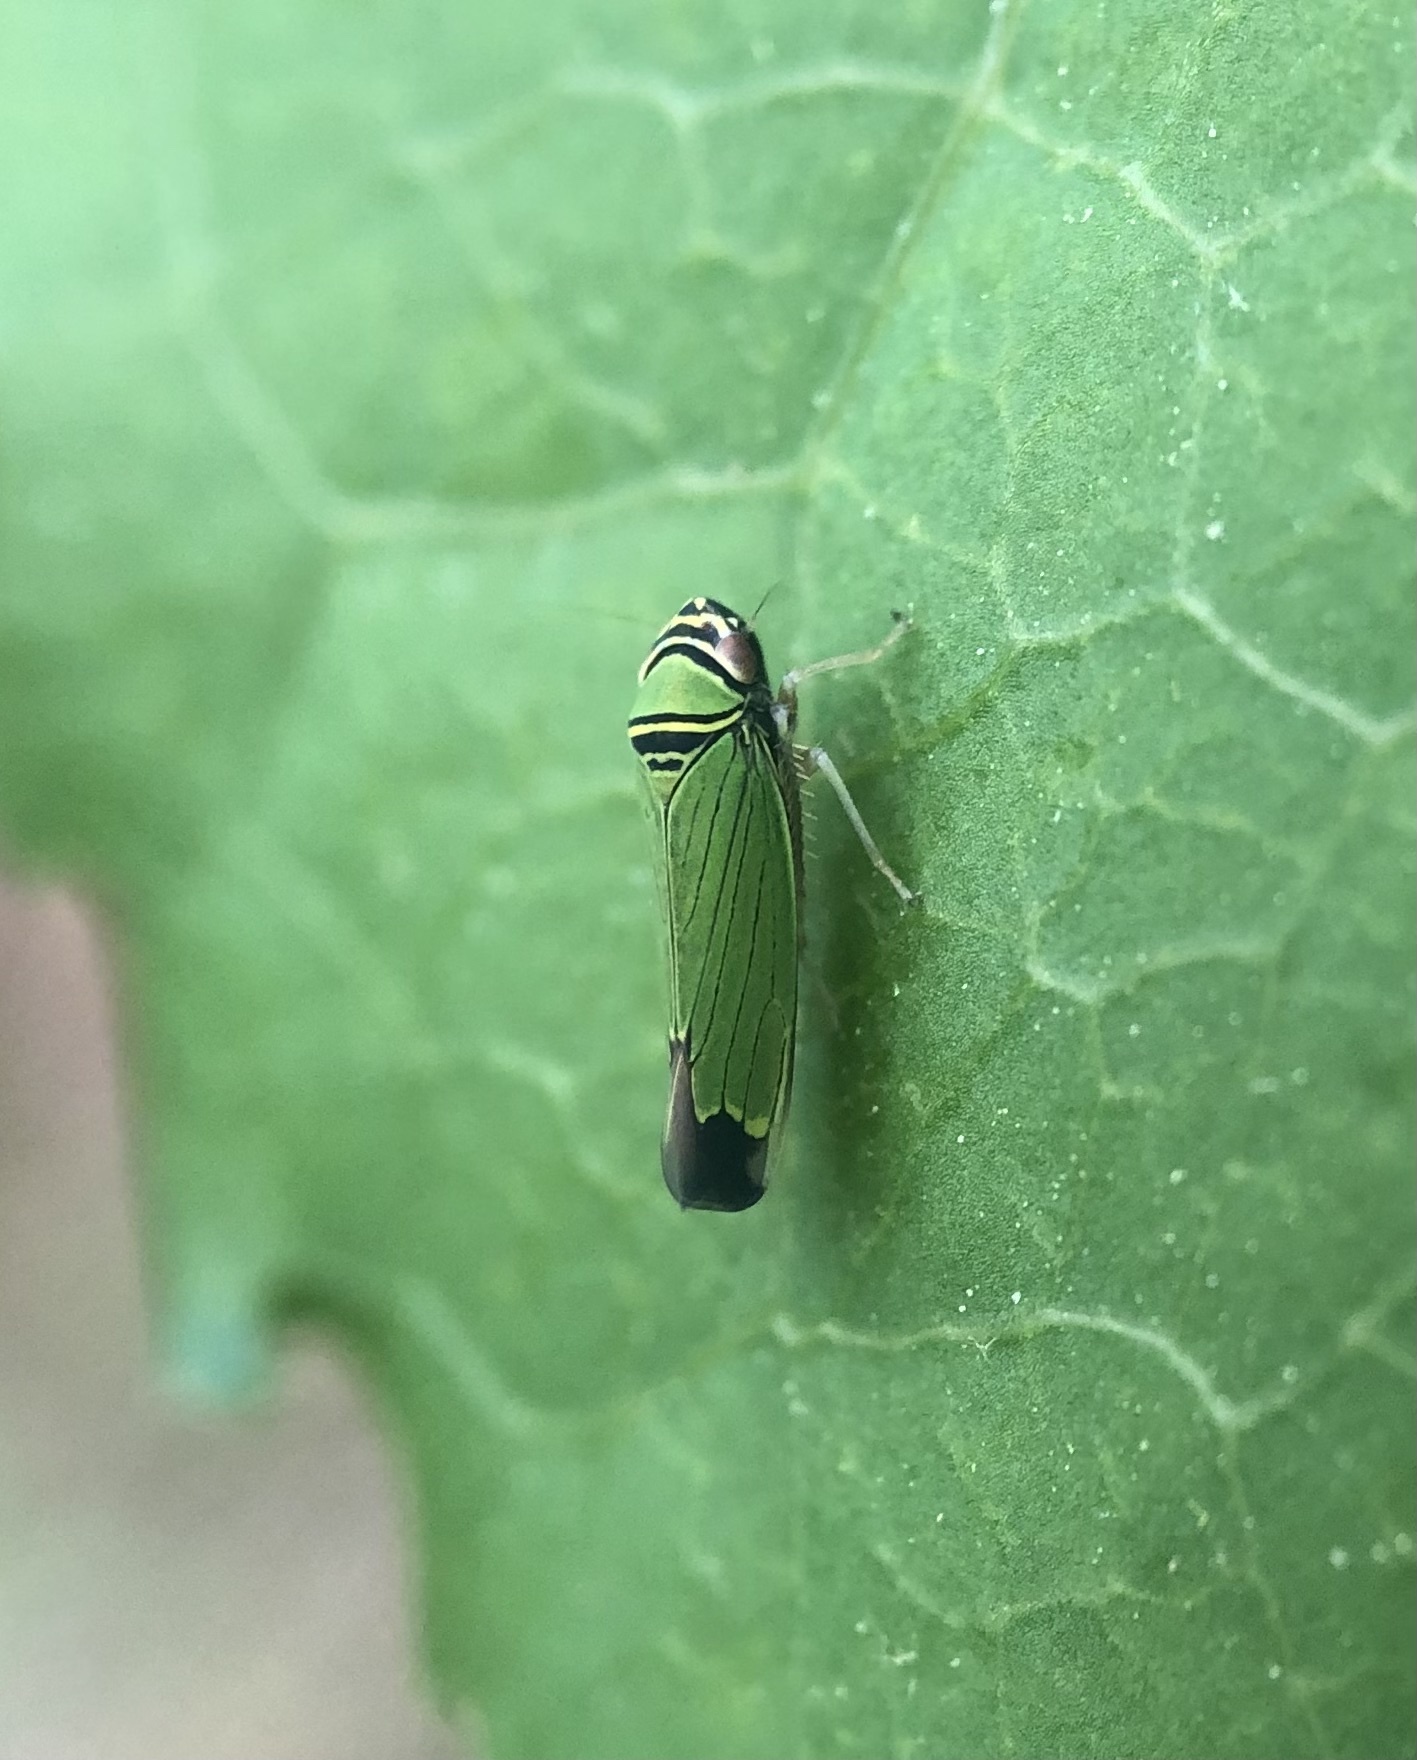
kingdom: Animalia
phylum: Arthropoda
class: Insecta
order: Hemiptera
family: Cicadellidae
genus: Tylozygus
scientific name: Tylozygus geometricus
